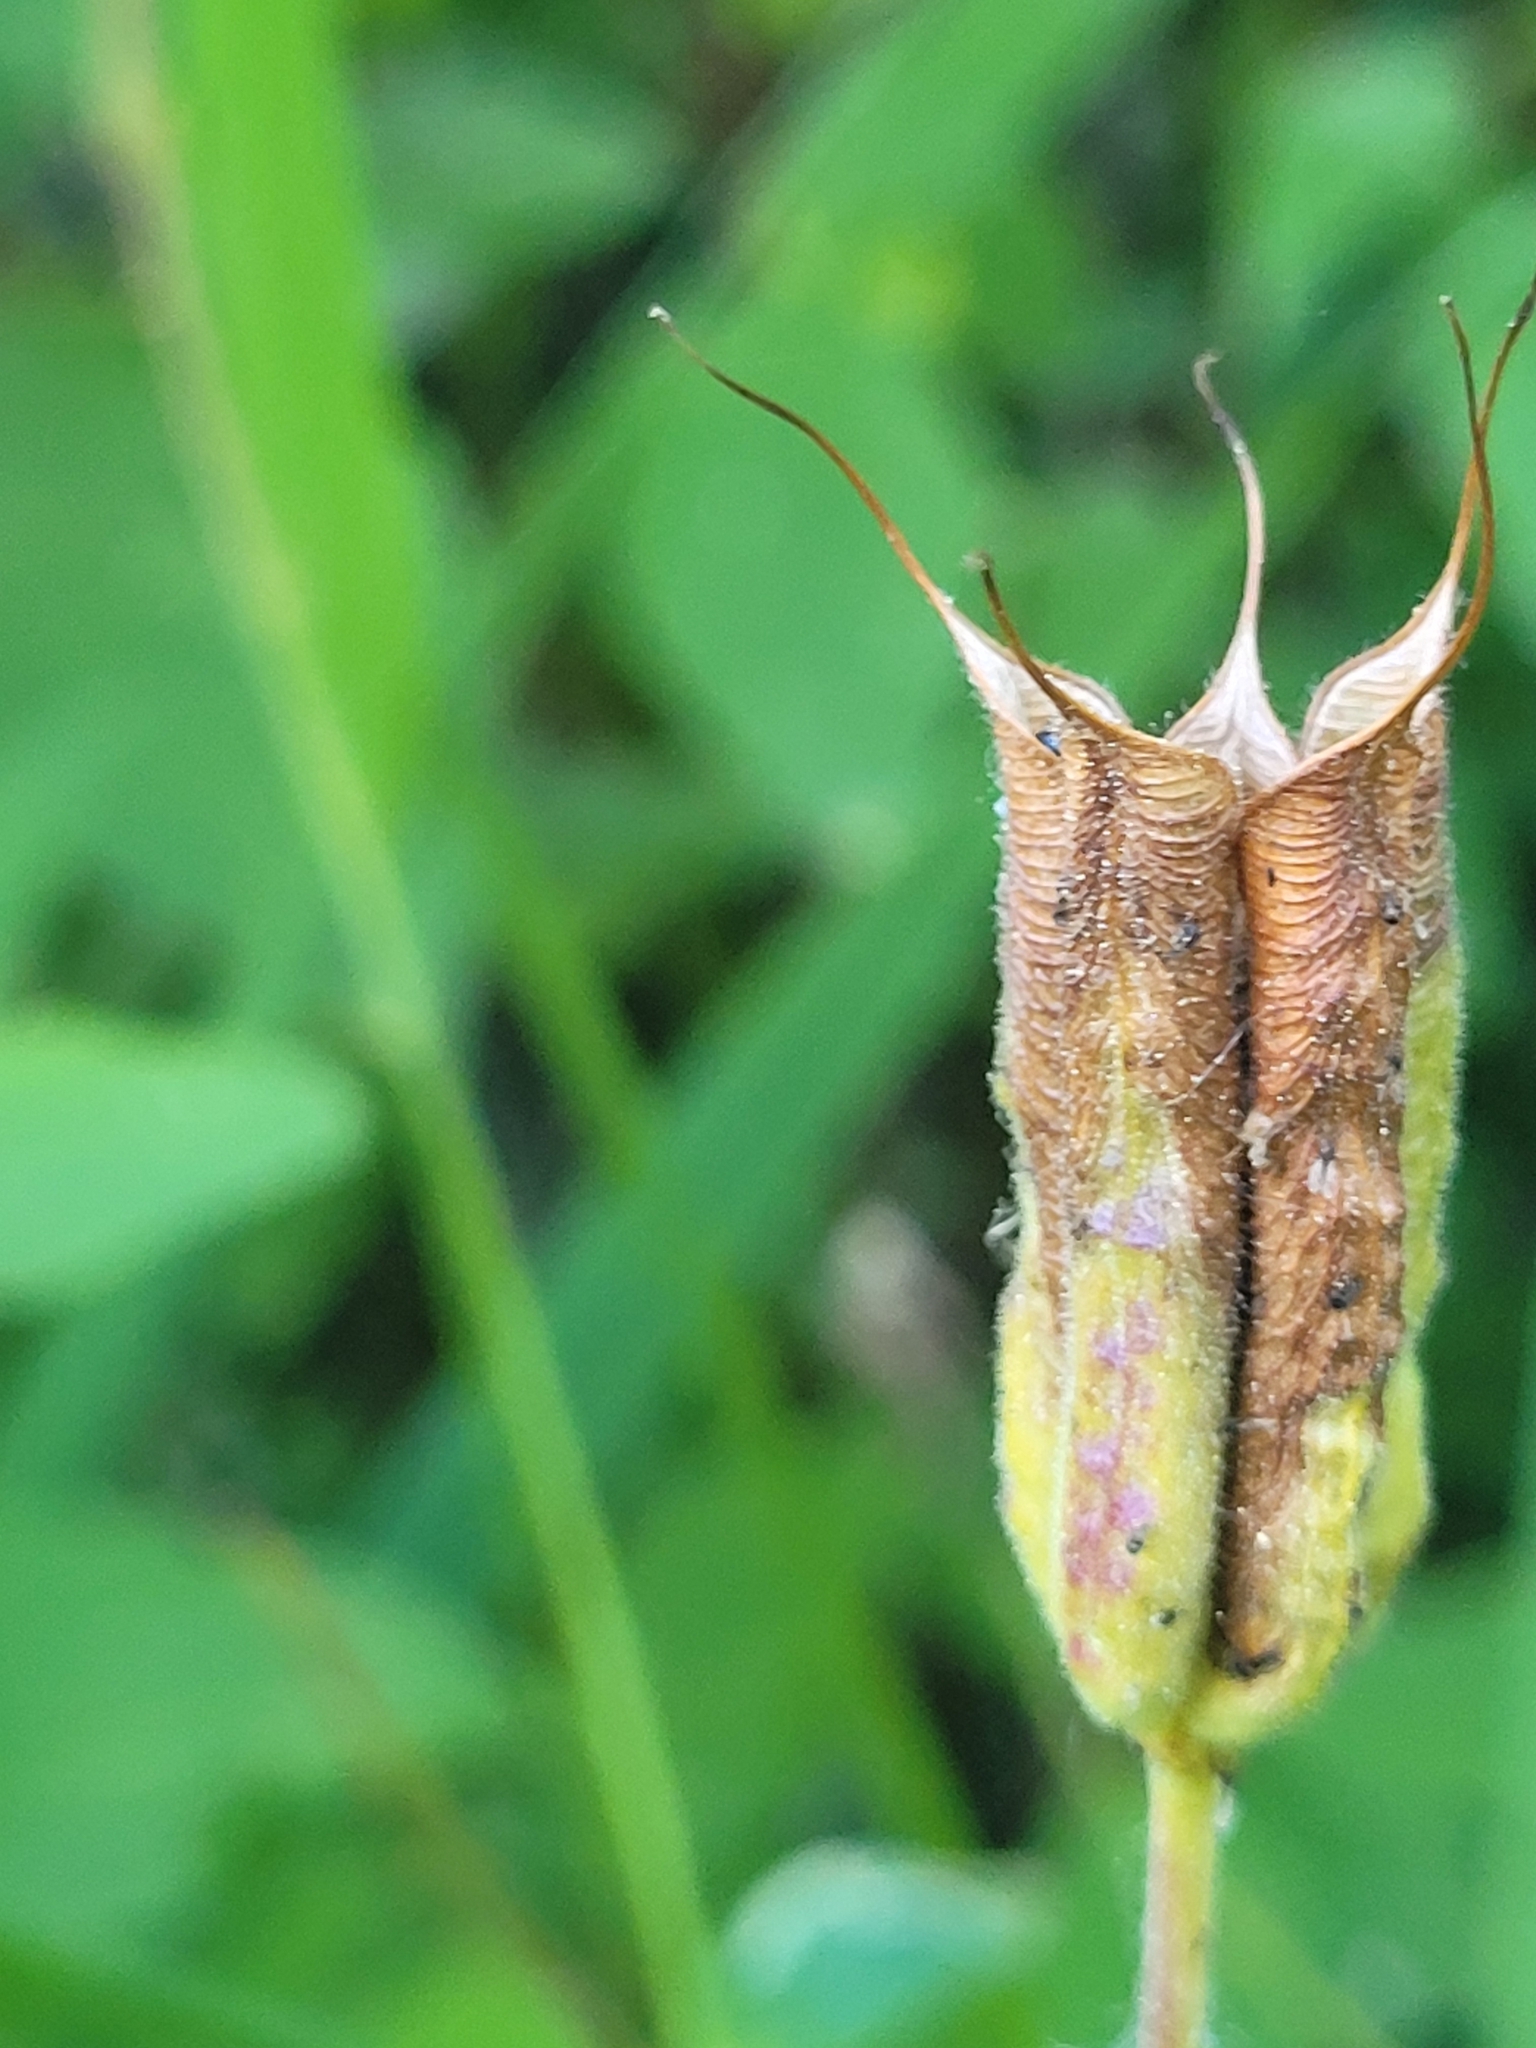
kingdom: Plantae
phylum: Tracheophyta
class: Magnoliopsida
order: Ranunculales
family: Ranunculaceae
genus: Aquilegia
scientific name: Aquilegia formosa
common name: Sitka columbine
